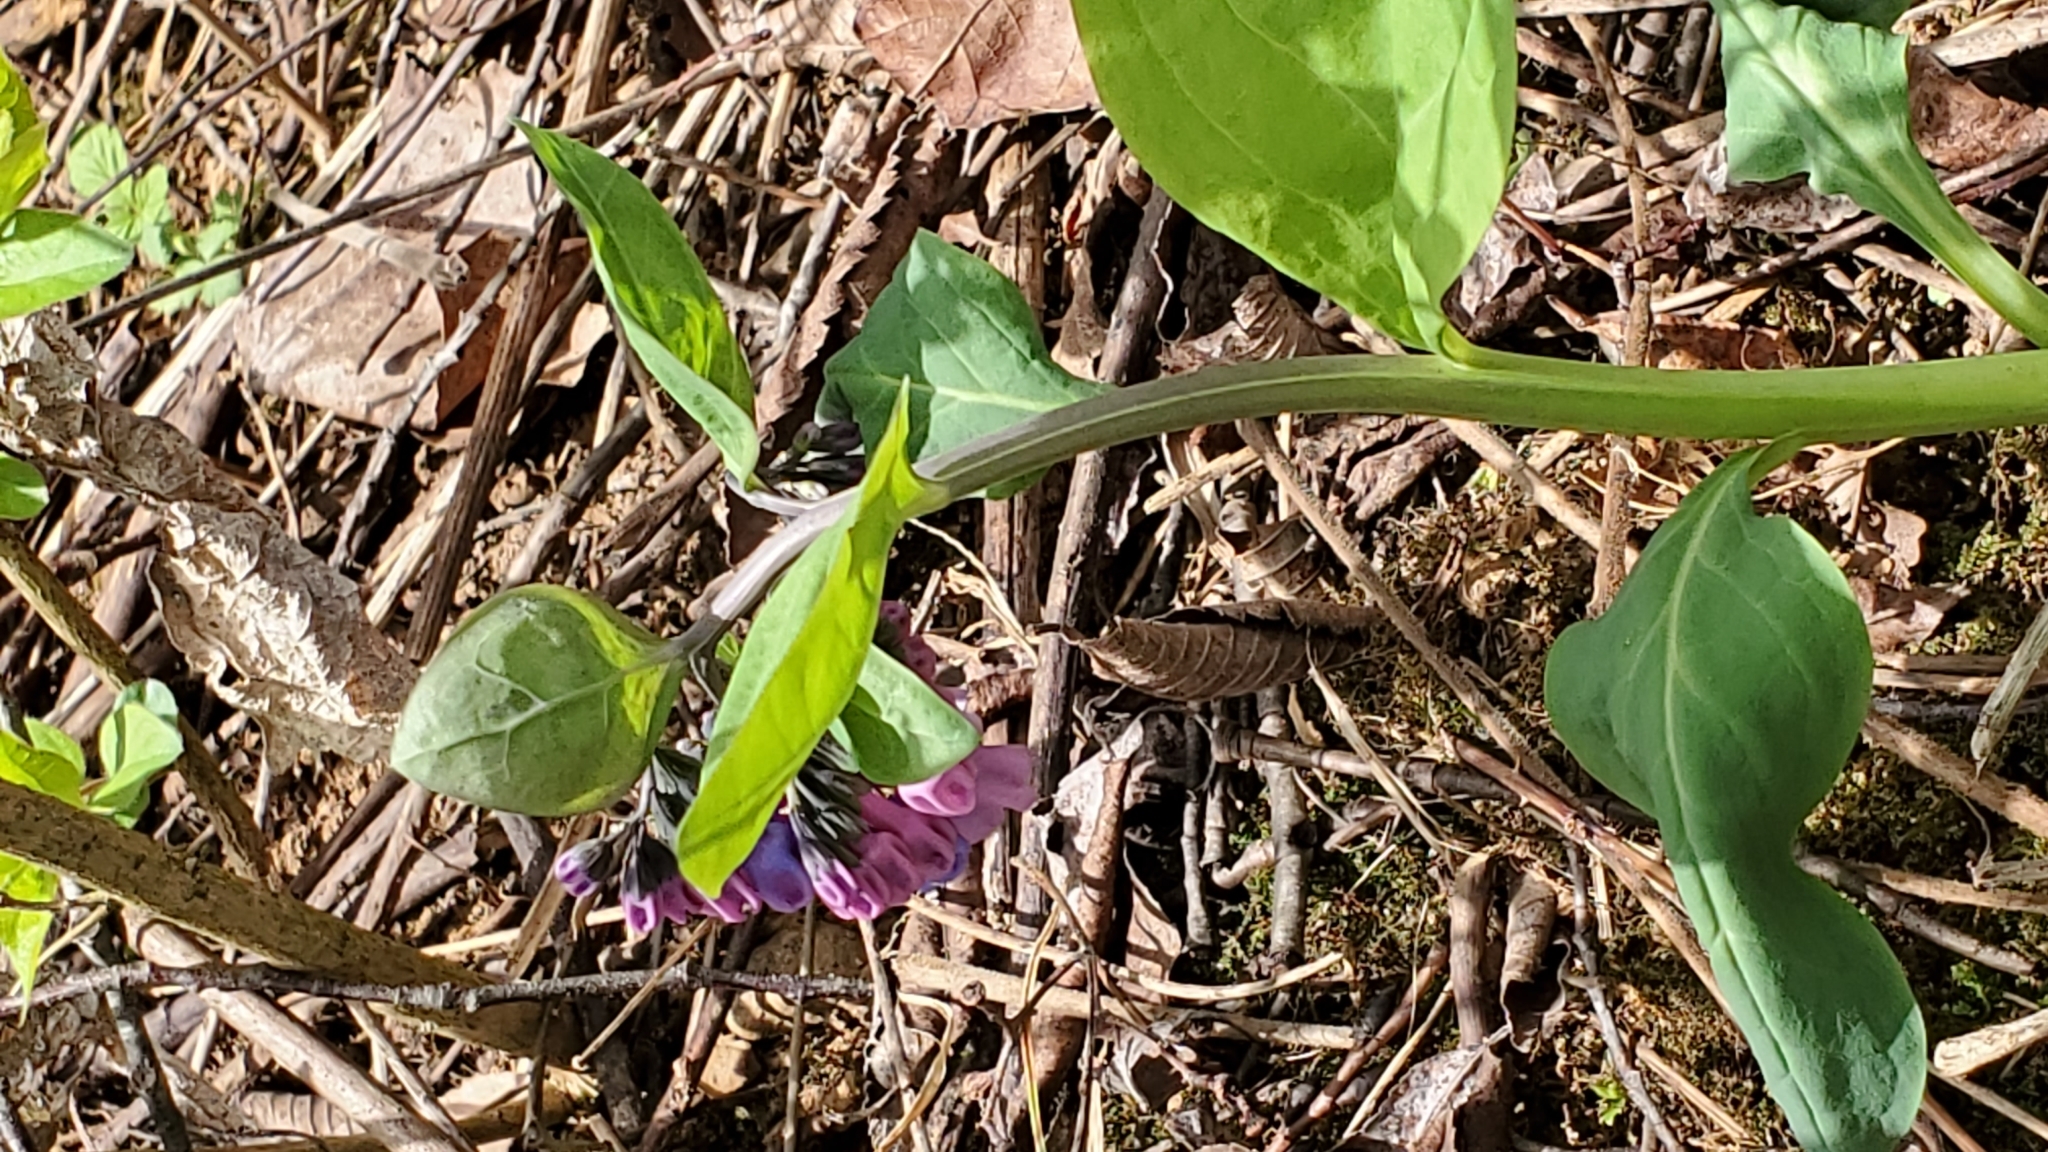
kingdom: Plantae
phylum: Tracheophyta
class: Magnoliopsida
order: Boraginales
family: Boraginaceae
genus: Mertensia
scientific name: Mertensia virginica
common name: Virginia bluebells
